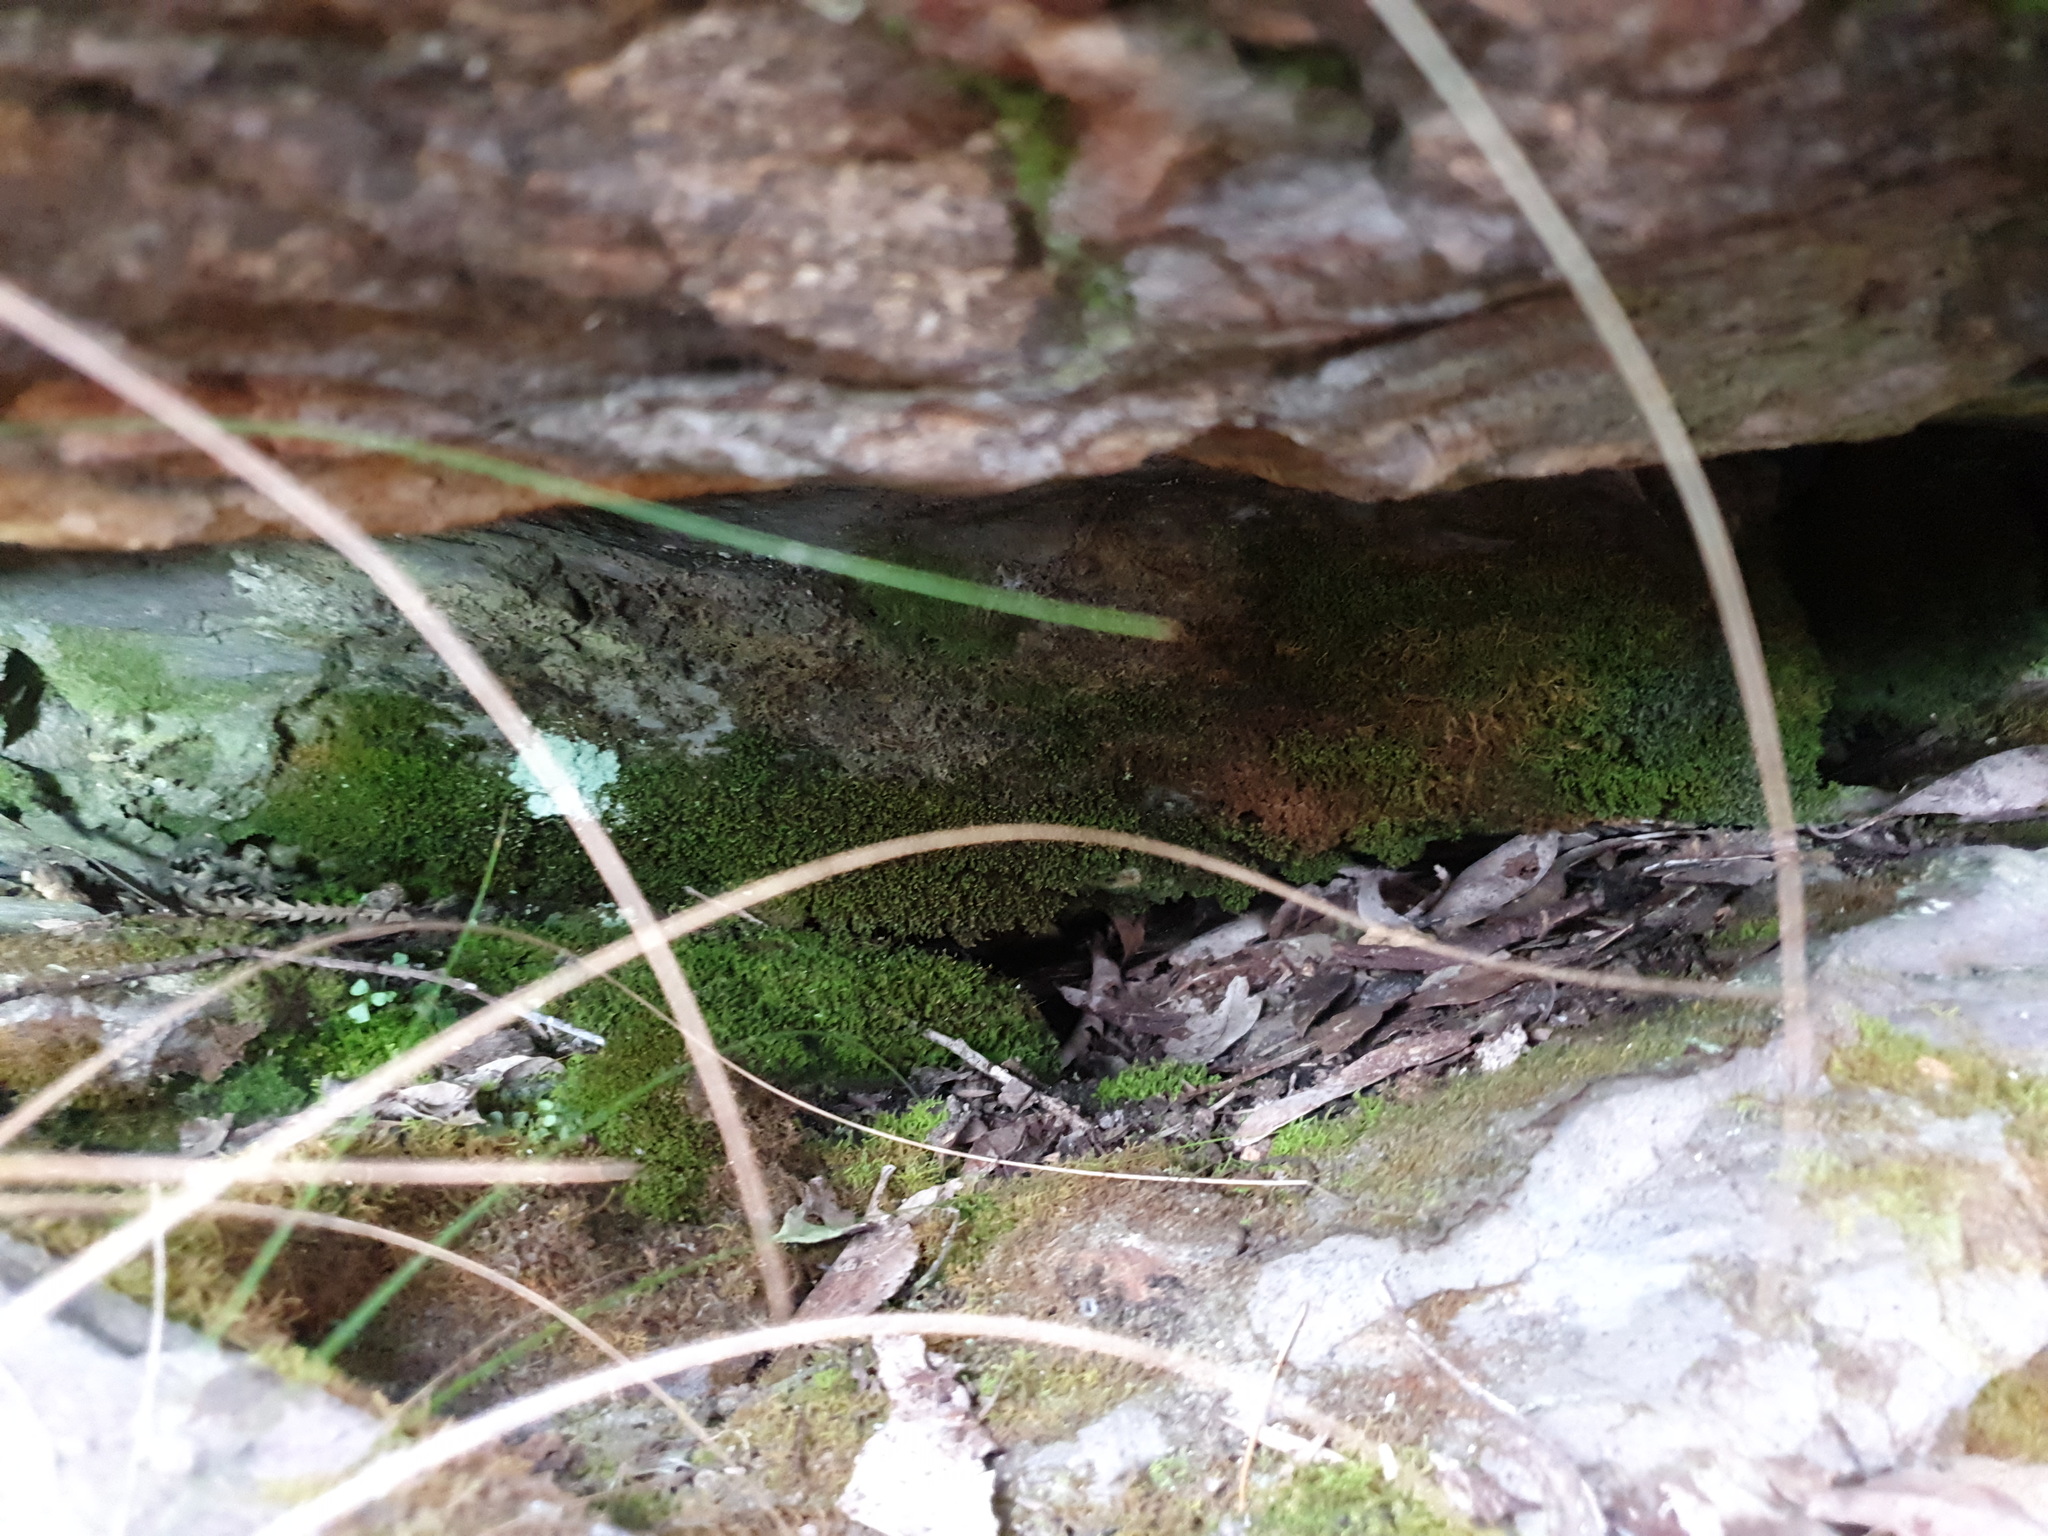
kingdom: Plantae
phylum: Tracheophyta
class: Polypodiopsida
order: Polypodiales
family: Aspleniaceae
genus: Asplenium
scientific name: Asplenium flabellifolium
